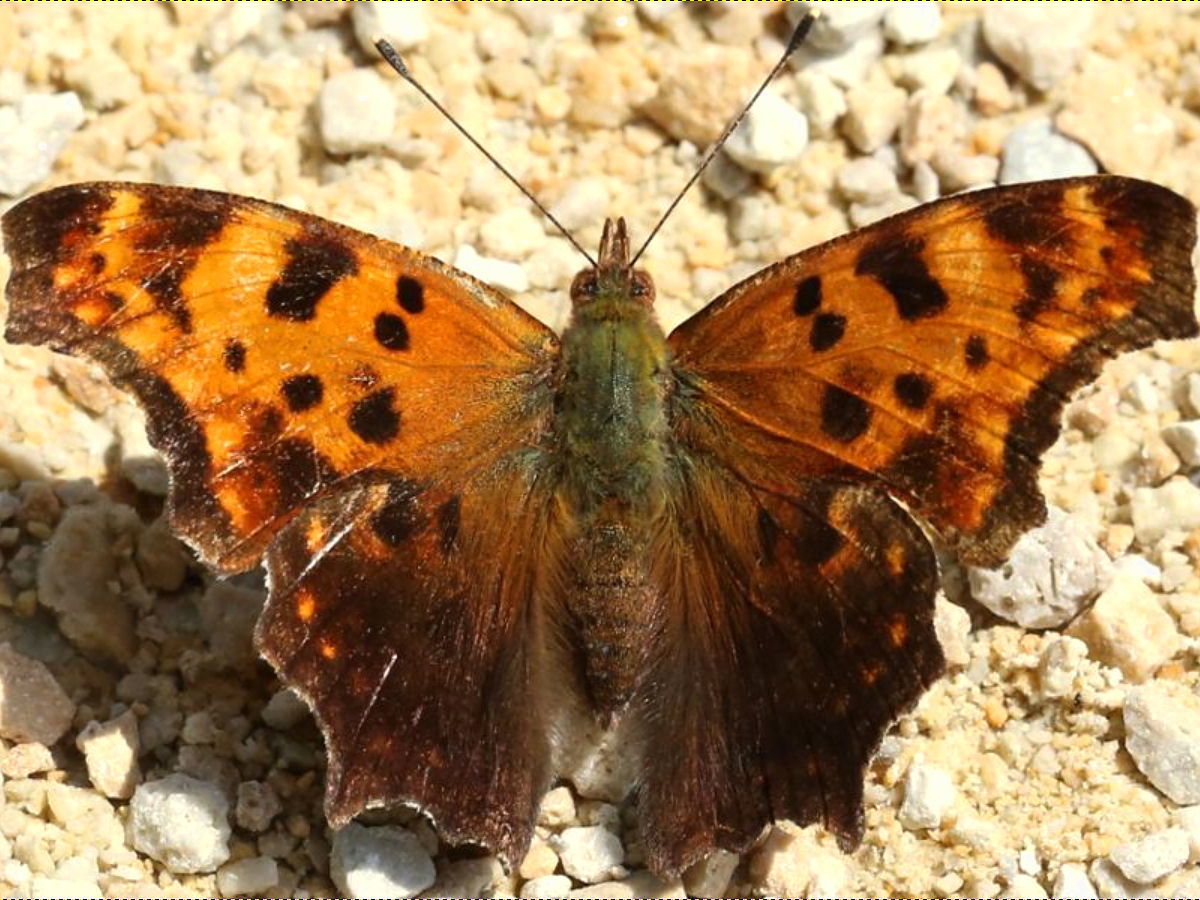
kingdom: Animalia
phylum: Arthropoda
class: Insecta
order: Lepidoptera
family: Nymphalidae
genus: Polygonia
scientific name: Polygonia comma
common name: Eastern comma
